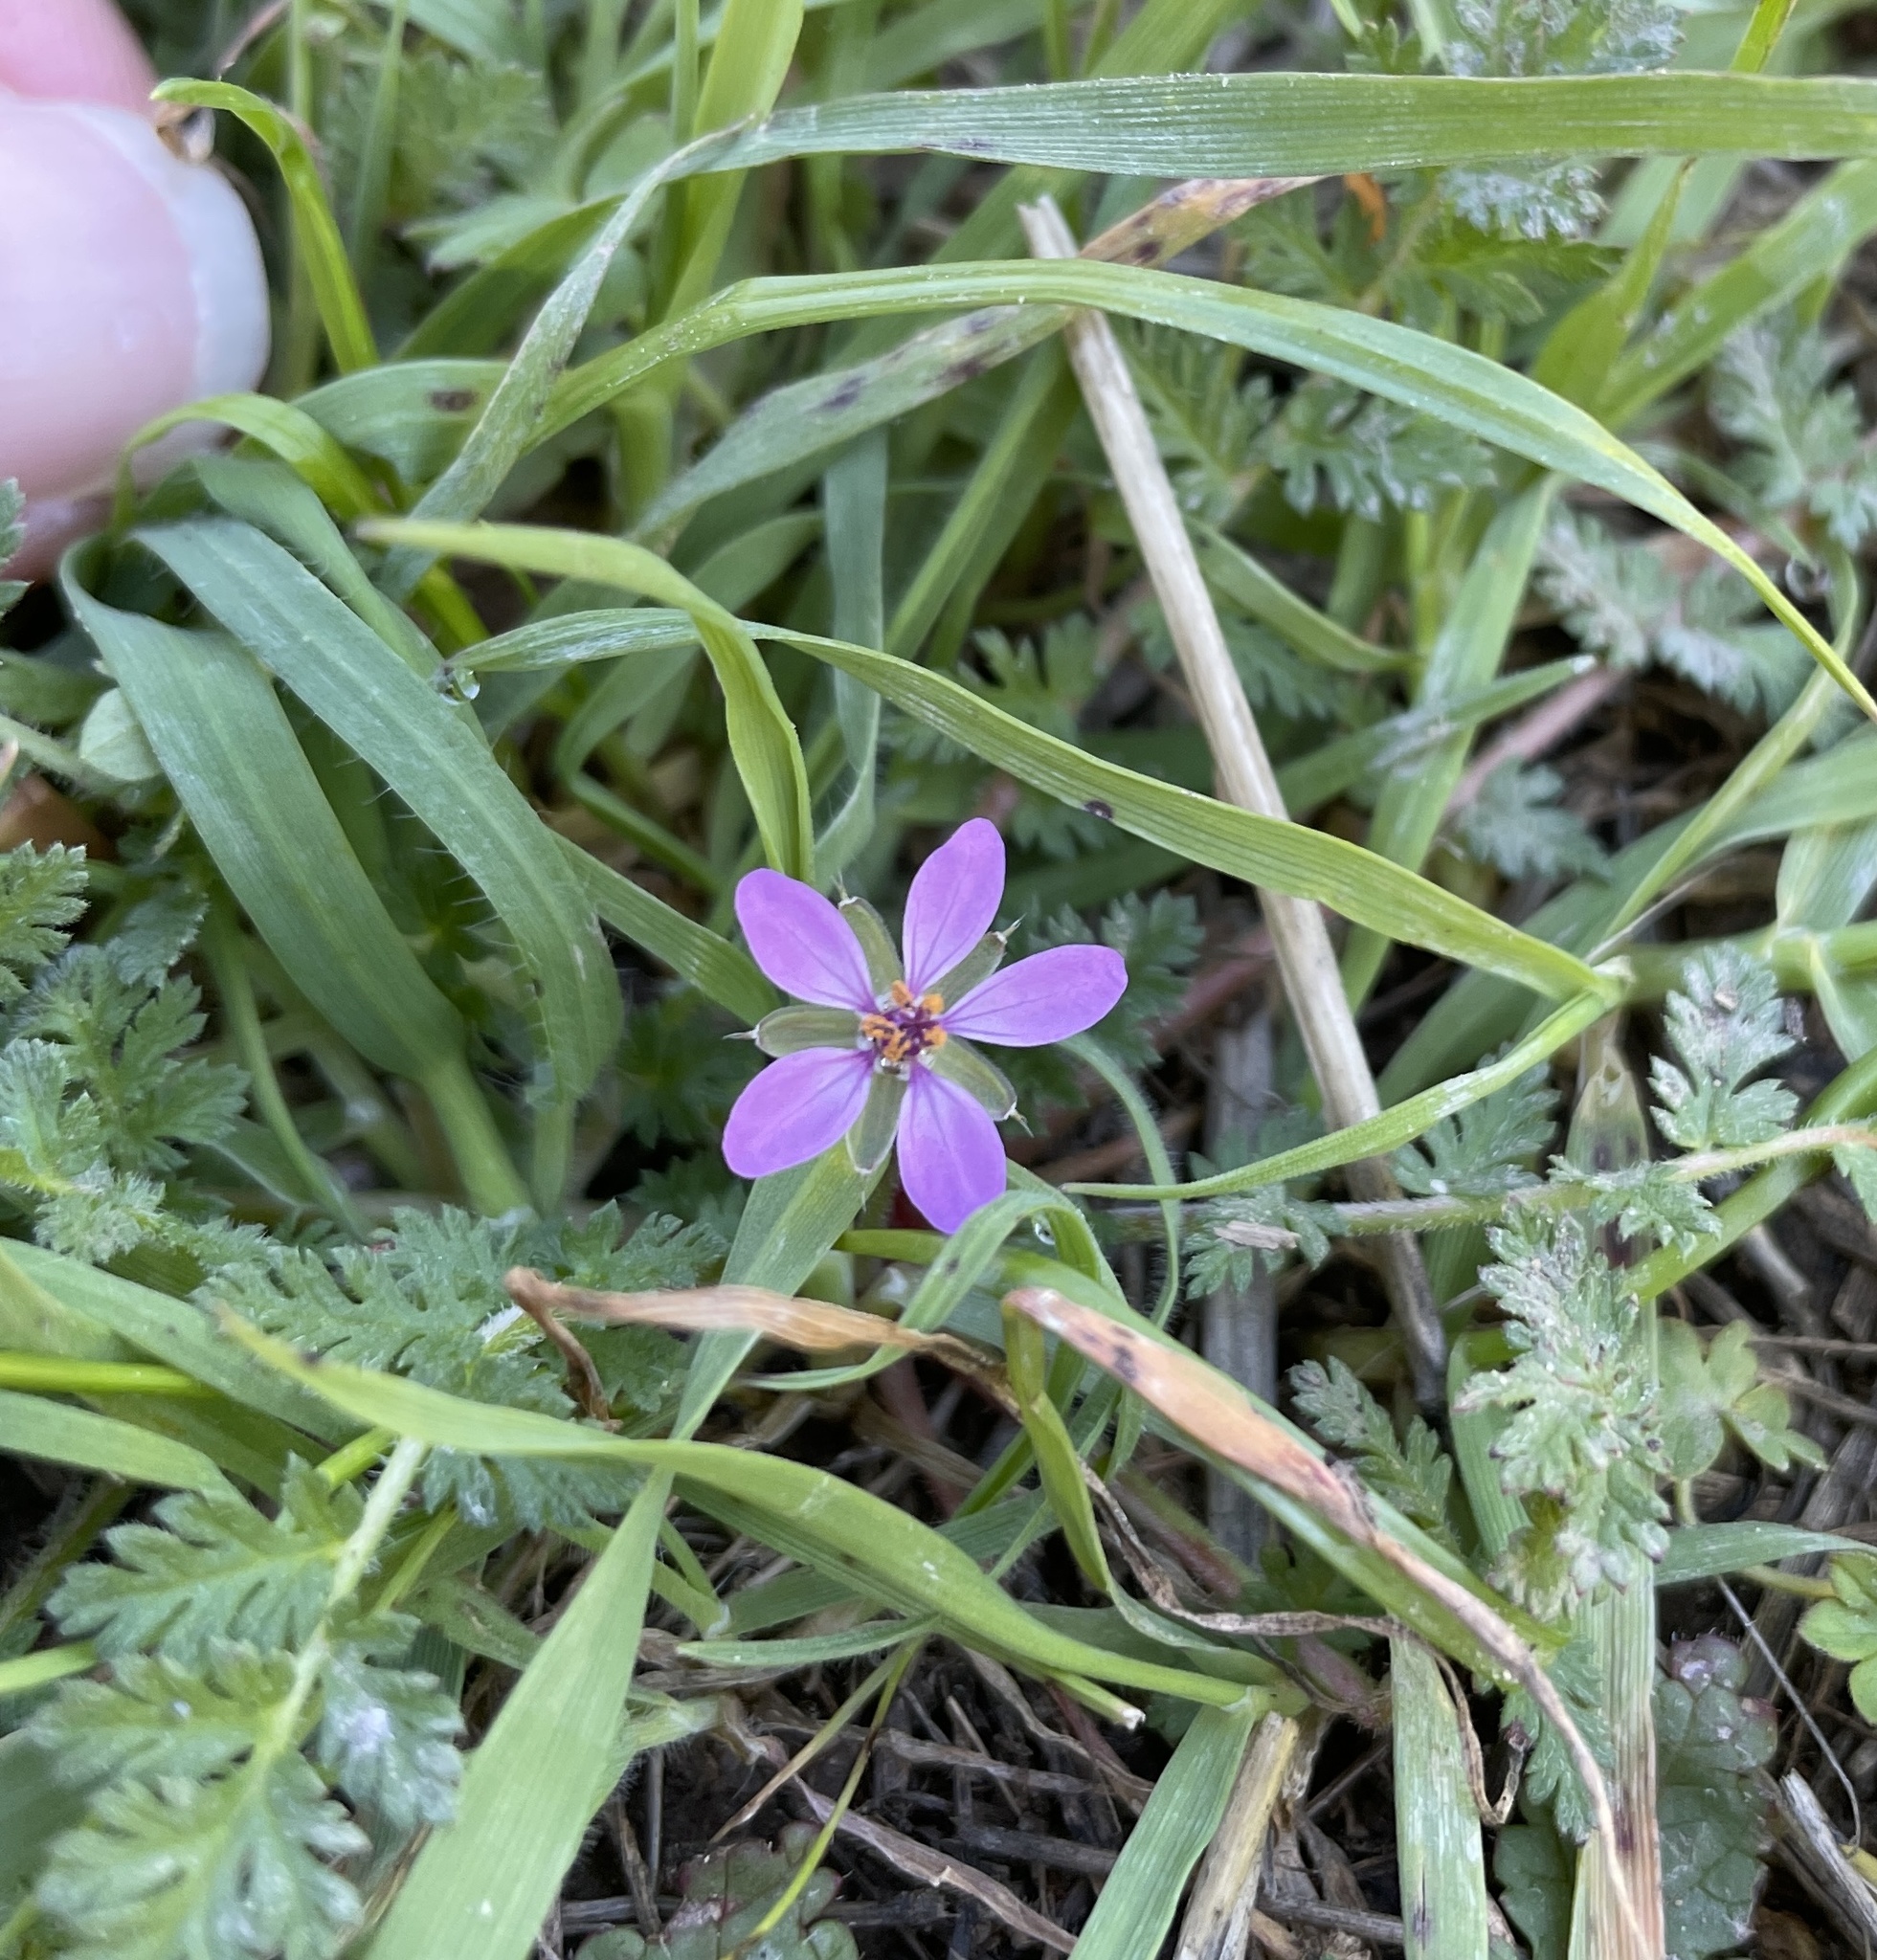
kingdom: Plantae
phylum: Tracheophyta
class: Magnoliopsida
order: Geraniales
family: Geraniaceae
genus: Erodium
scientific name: Erodium cicutarium
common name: Common stork's-bill
